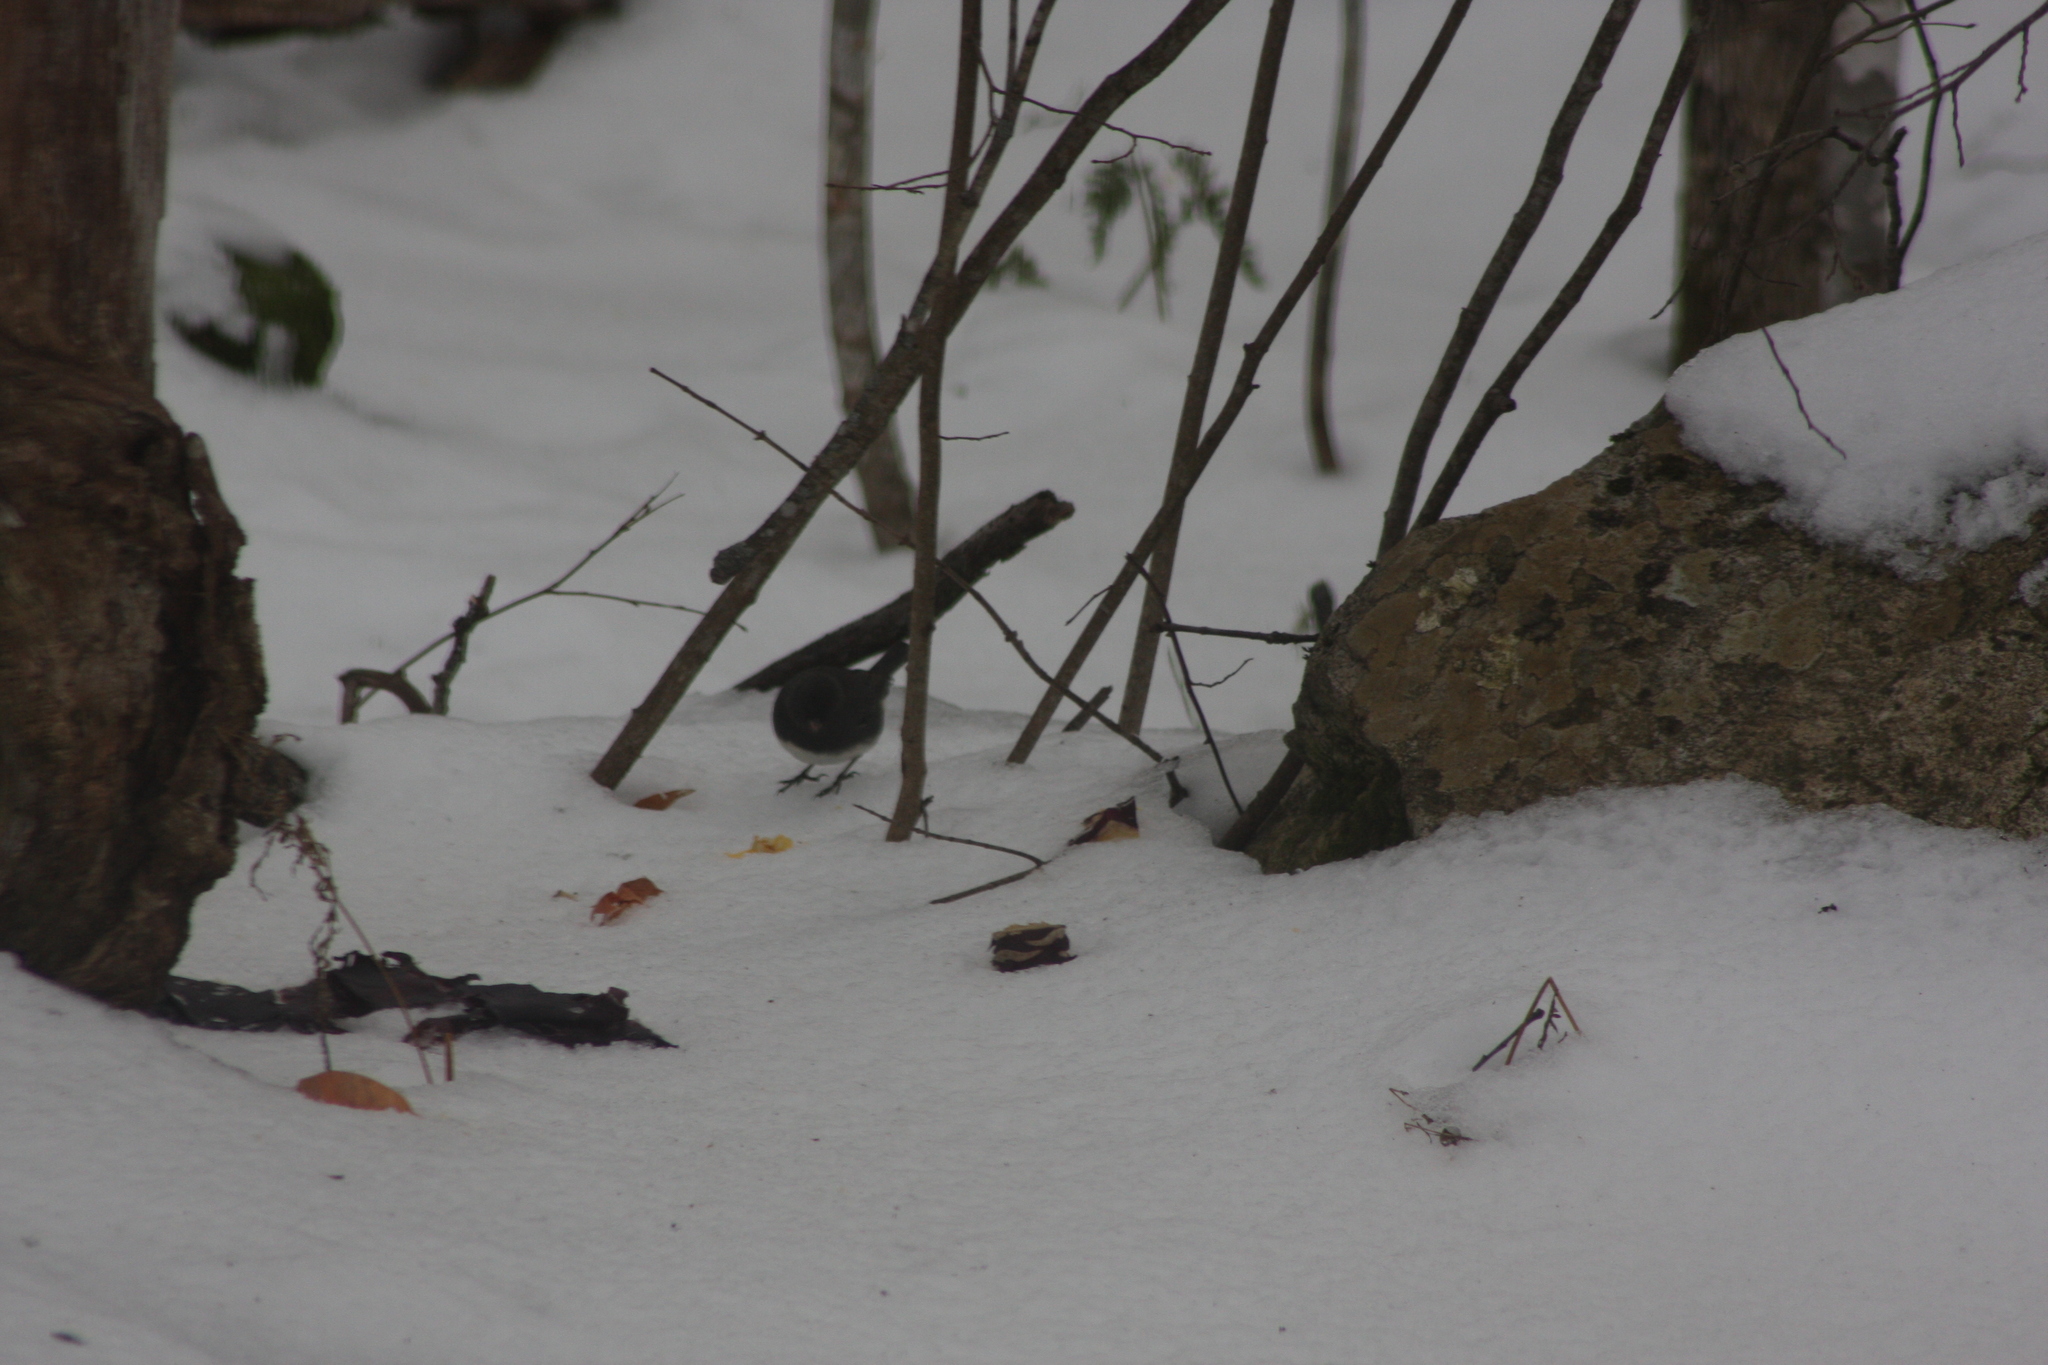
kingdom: Animalia
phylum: Chordata
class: Aves
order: Passeriformes
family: Passerellidae
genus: Junco
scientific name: Junco hyemalis
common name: Dark-eyed junco
